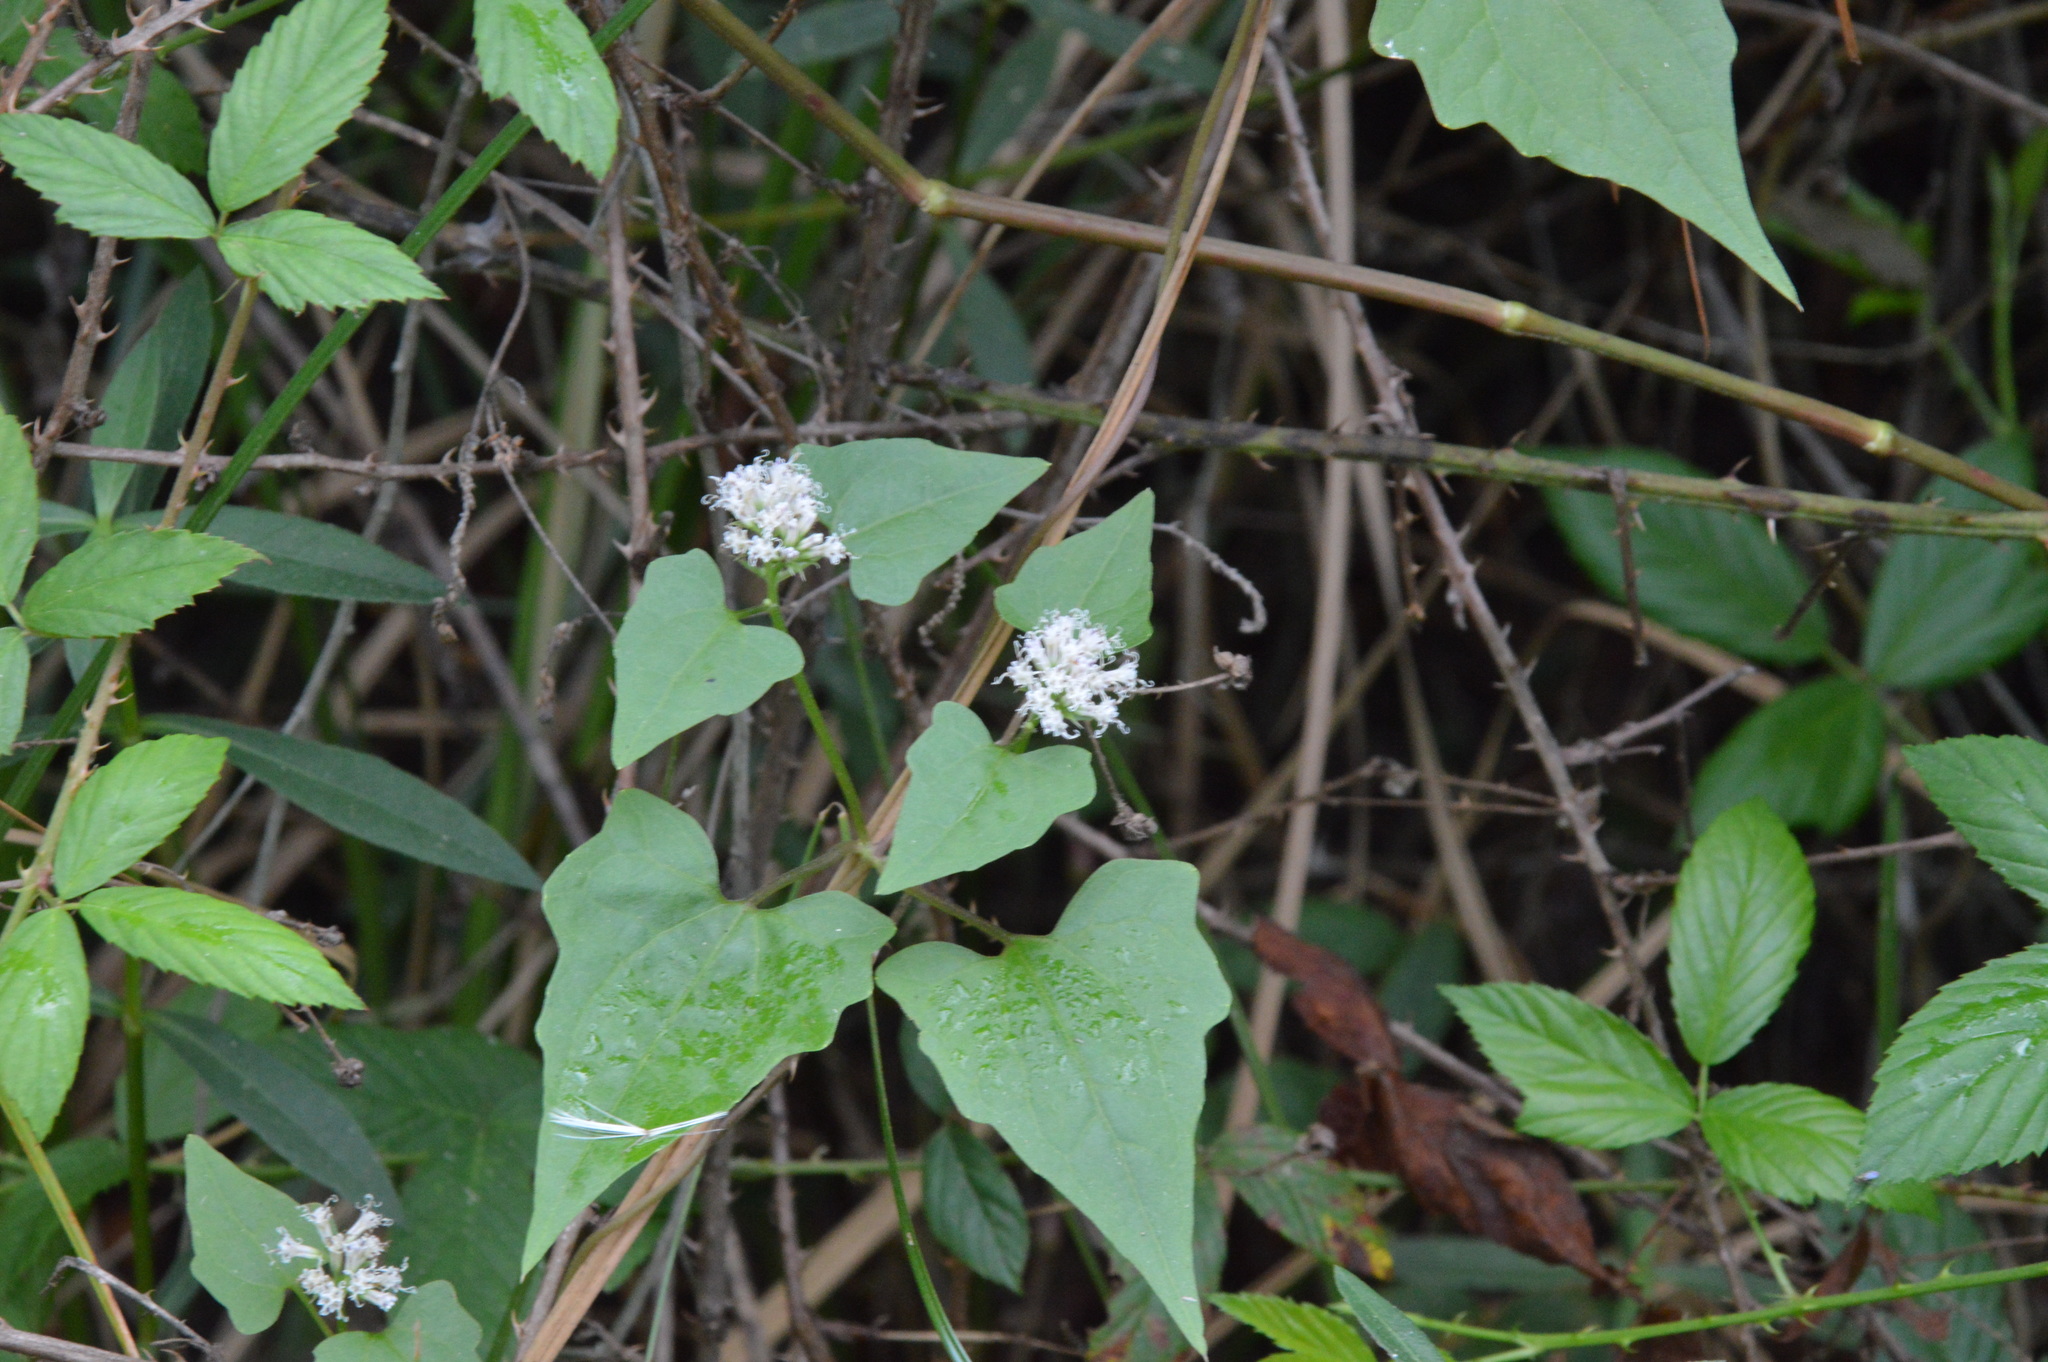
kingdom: Plantae
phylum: Tracheophyta
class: Magnoliopsida
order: Asterales
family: Asteraceae
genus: Mikania
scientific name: Mikania scandens
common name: Climbing hempvine
